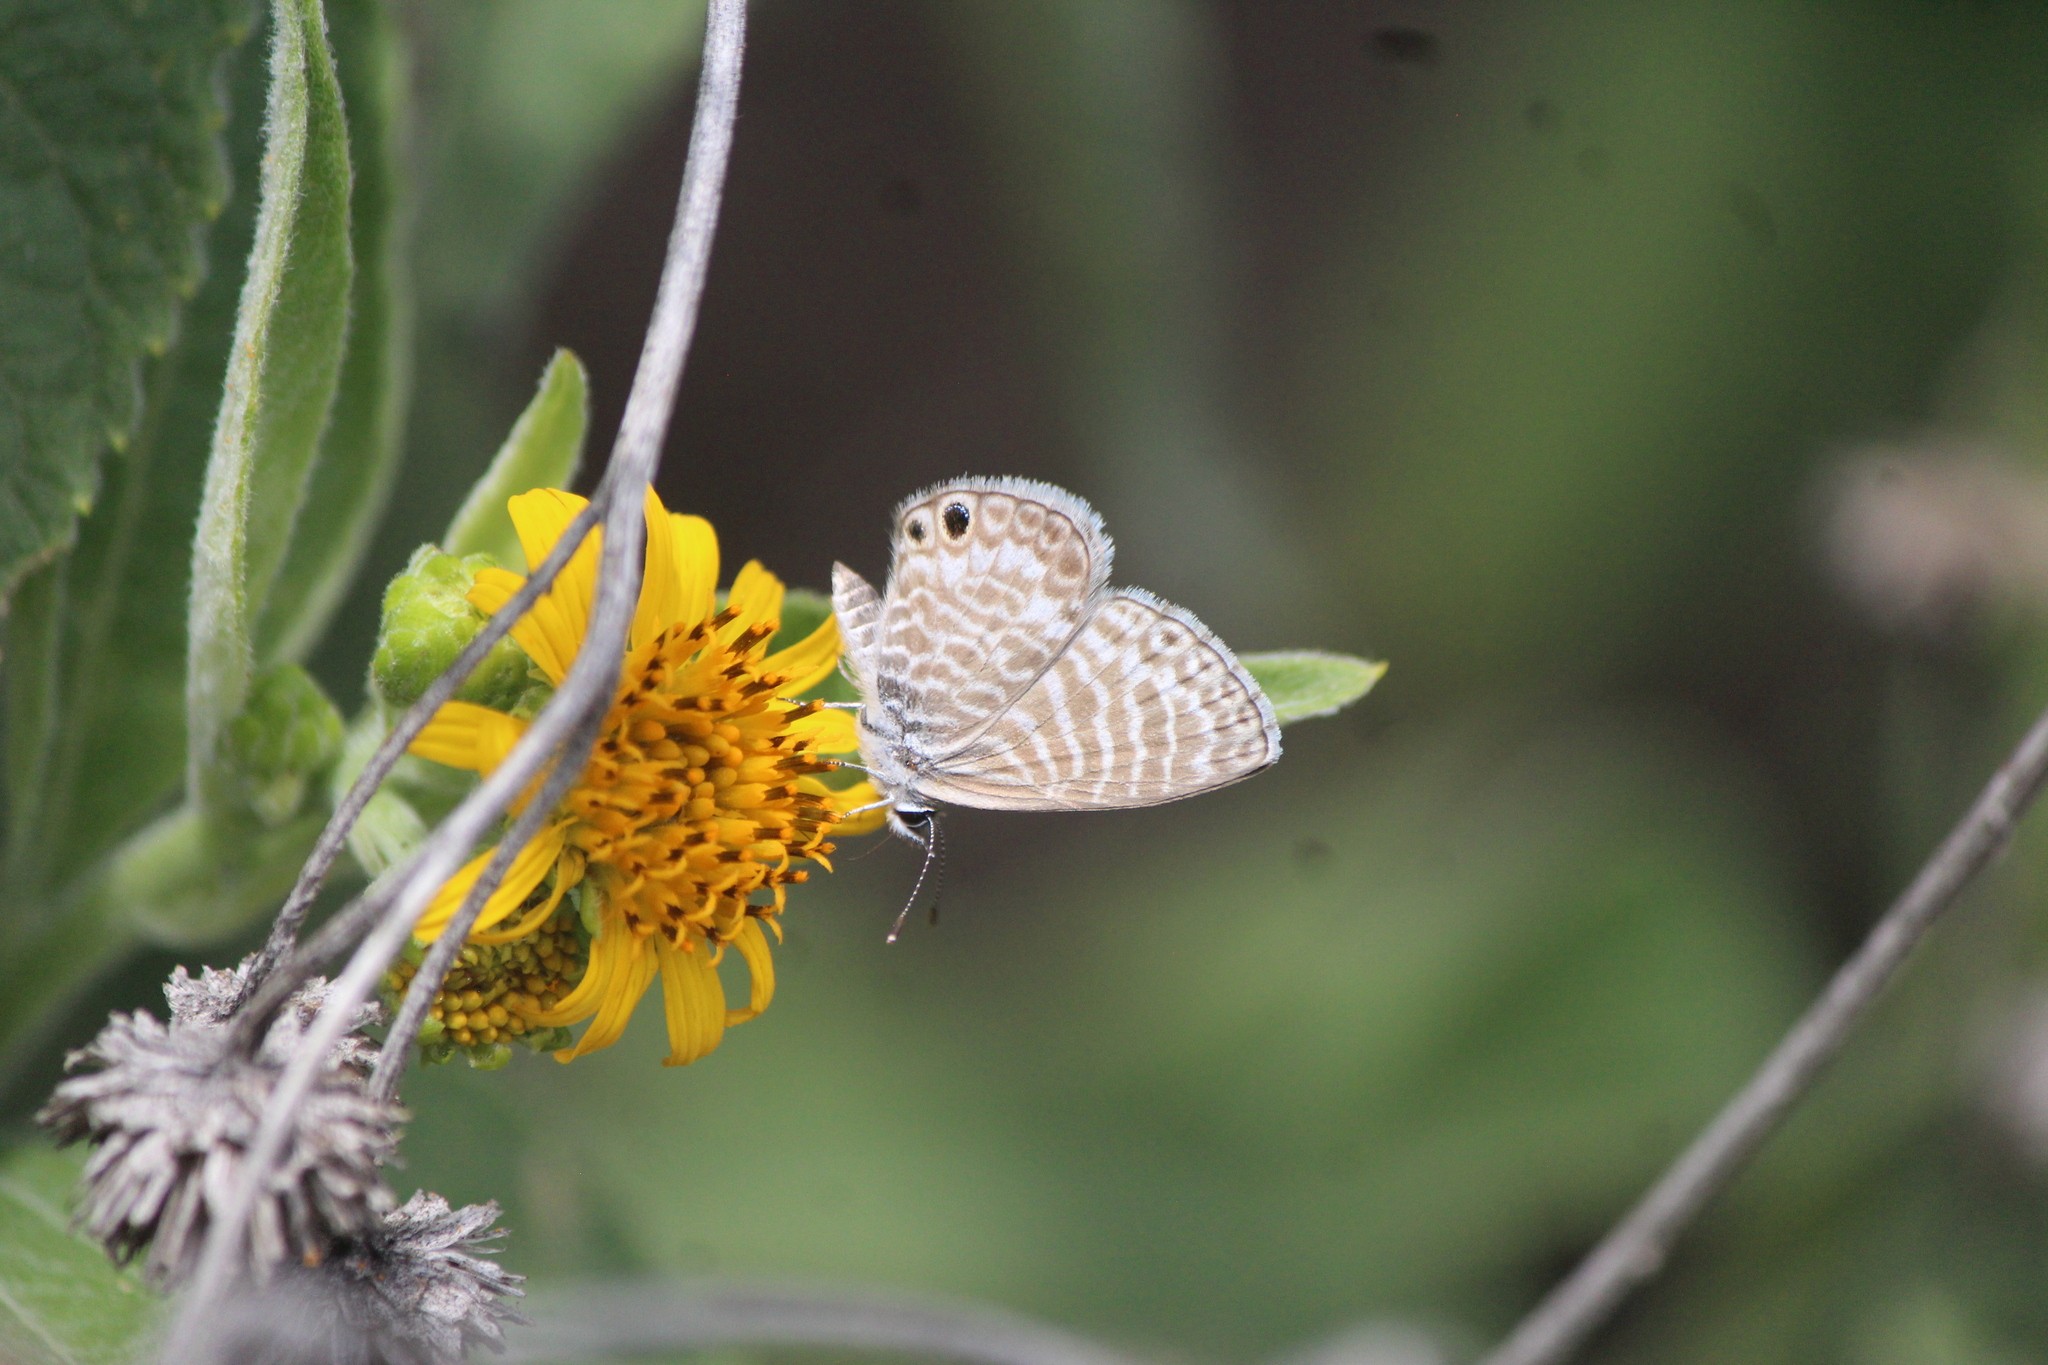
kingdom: Animalia
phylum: Arthropoda
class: Insecta
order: Lepidoptera
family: Lycaenidae
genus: Leptotes
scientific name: Leptotes marina
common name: Marine blue
